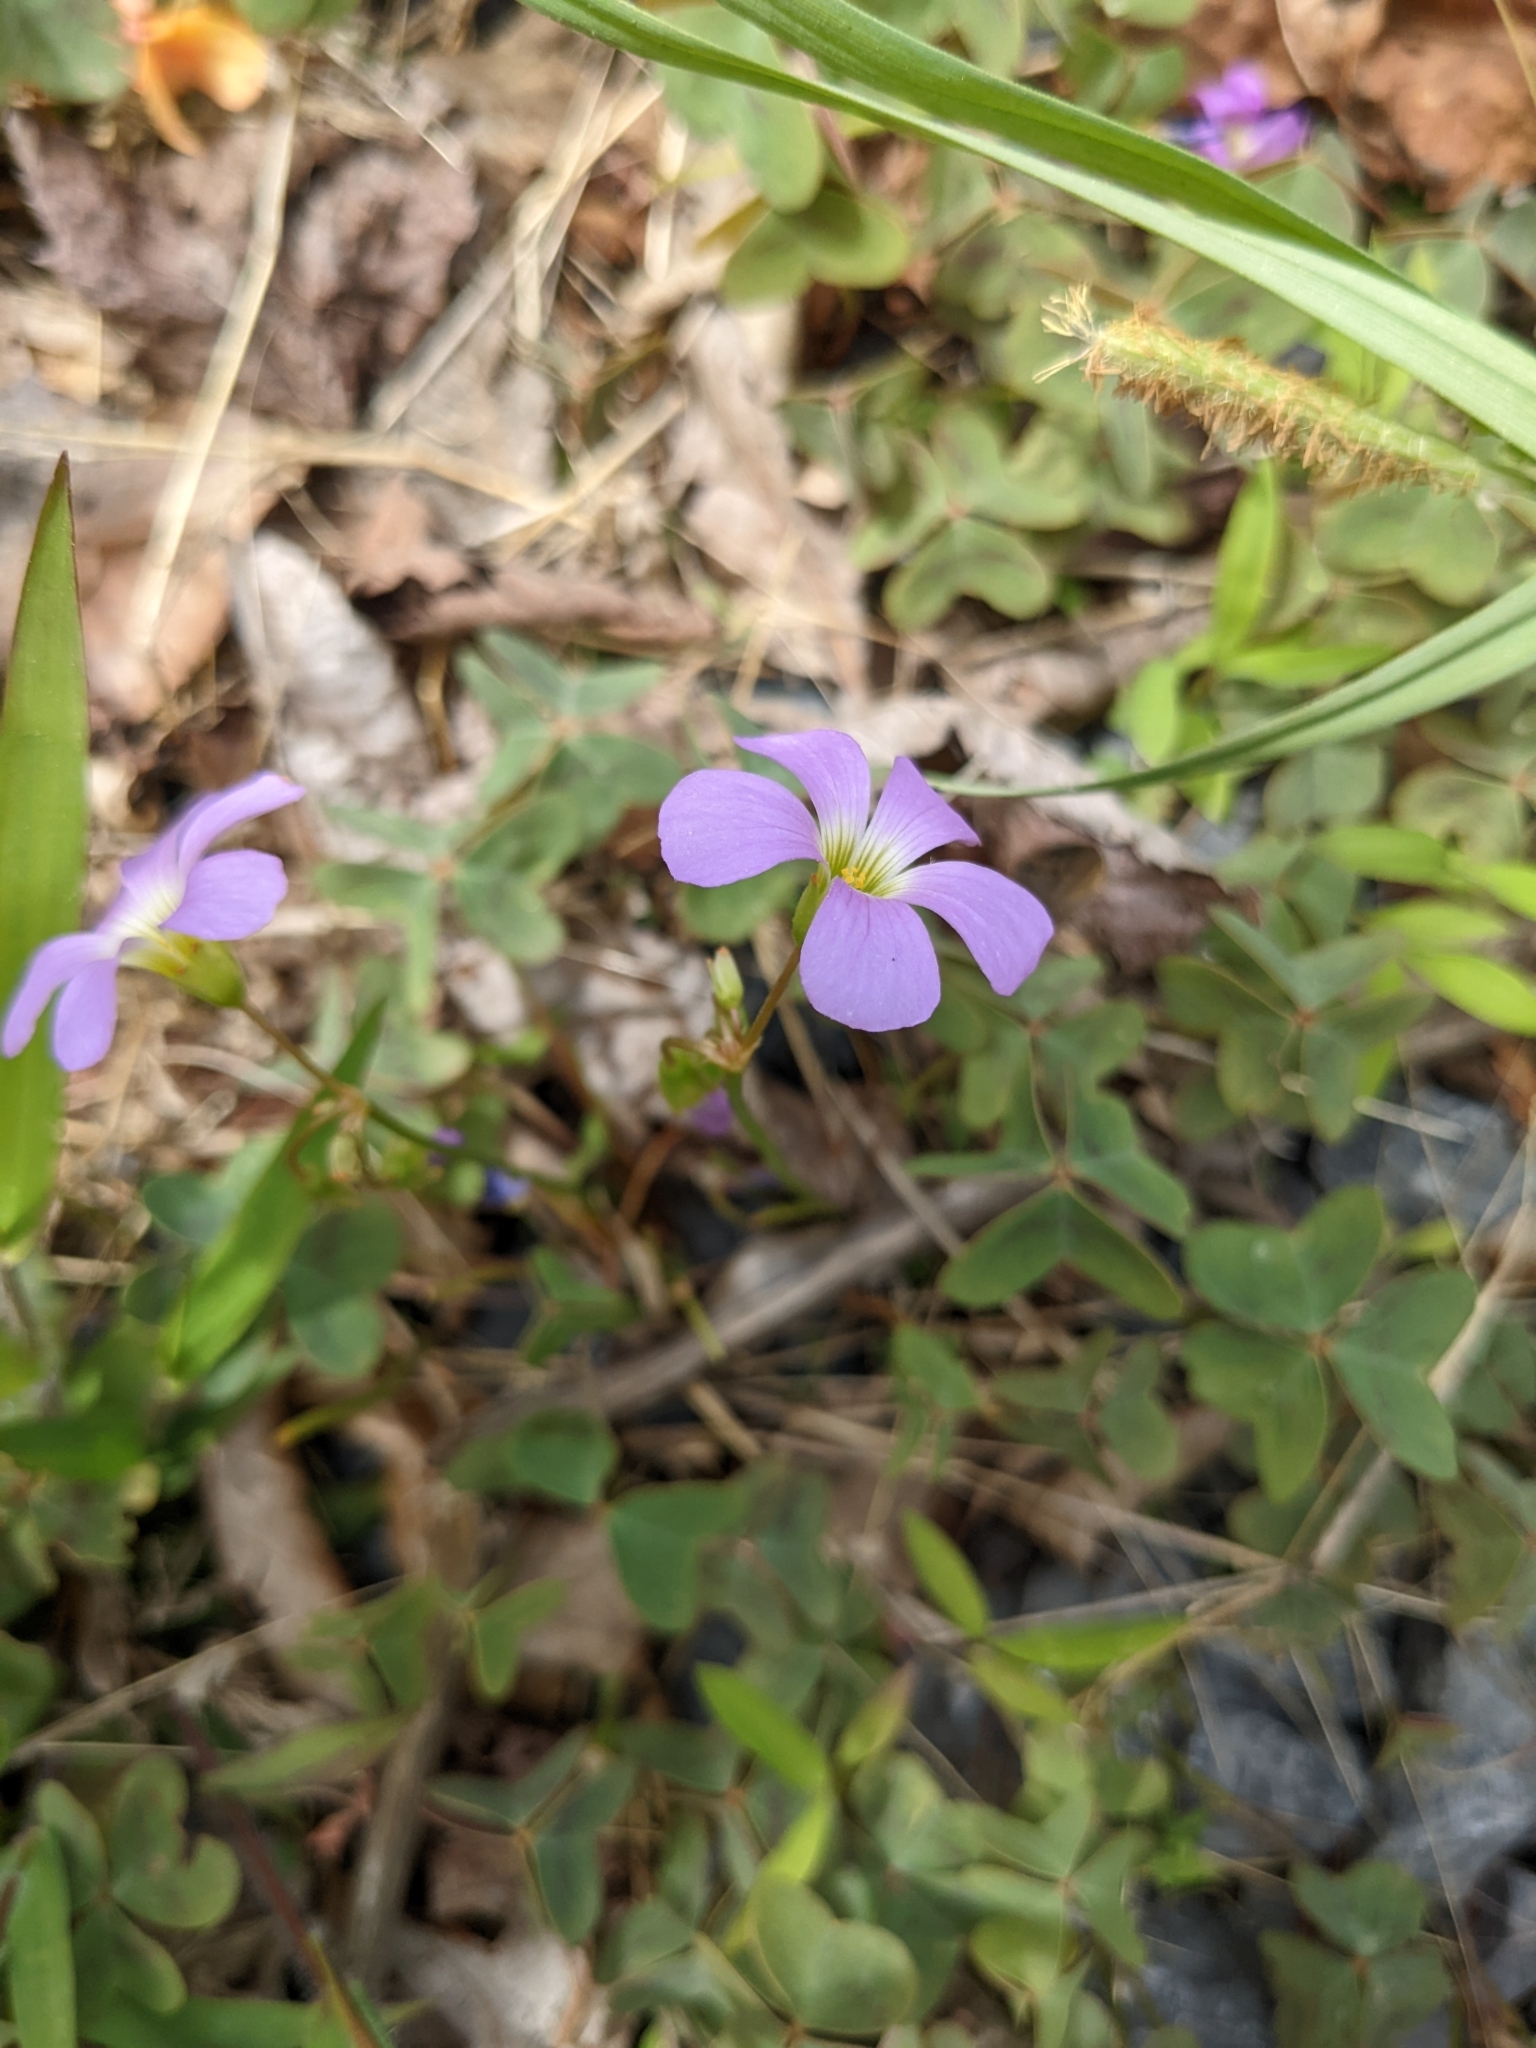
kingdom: Plantae
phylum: Tracheophyta
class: Magnoliopsida
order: Oxalidales
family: Oxalidaceae
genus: Oxalis
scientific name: Oxalis violacea
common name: Violet wood-sorrel
